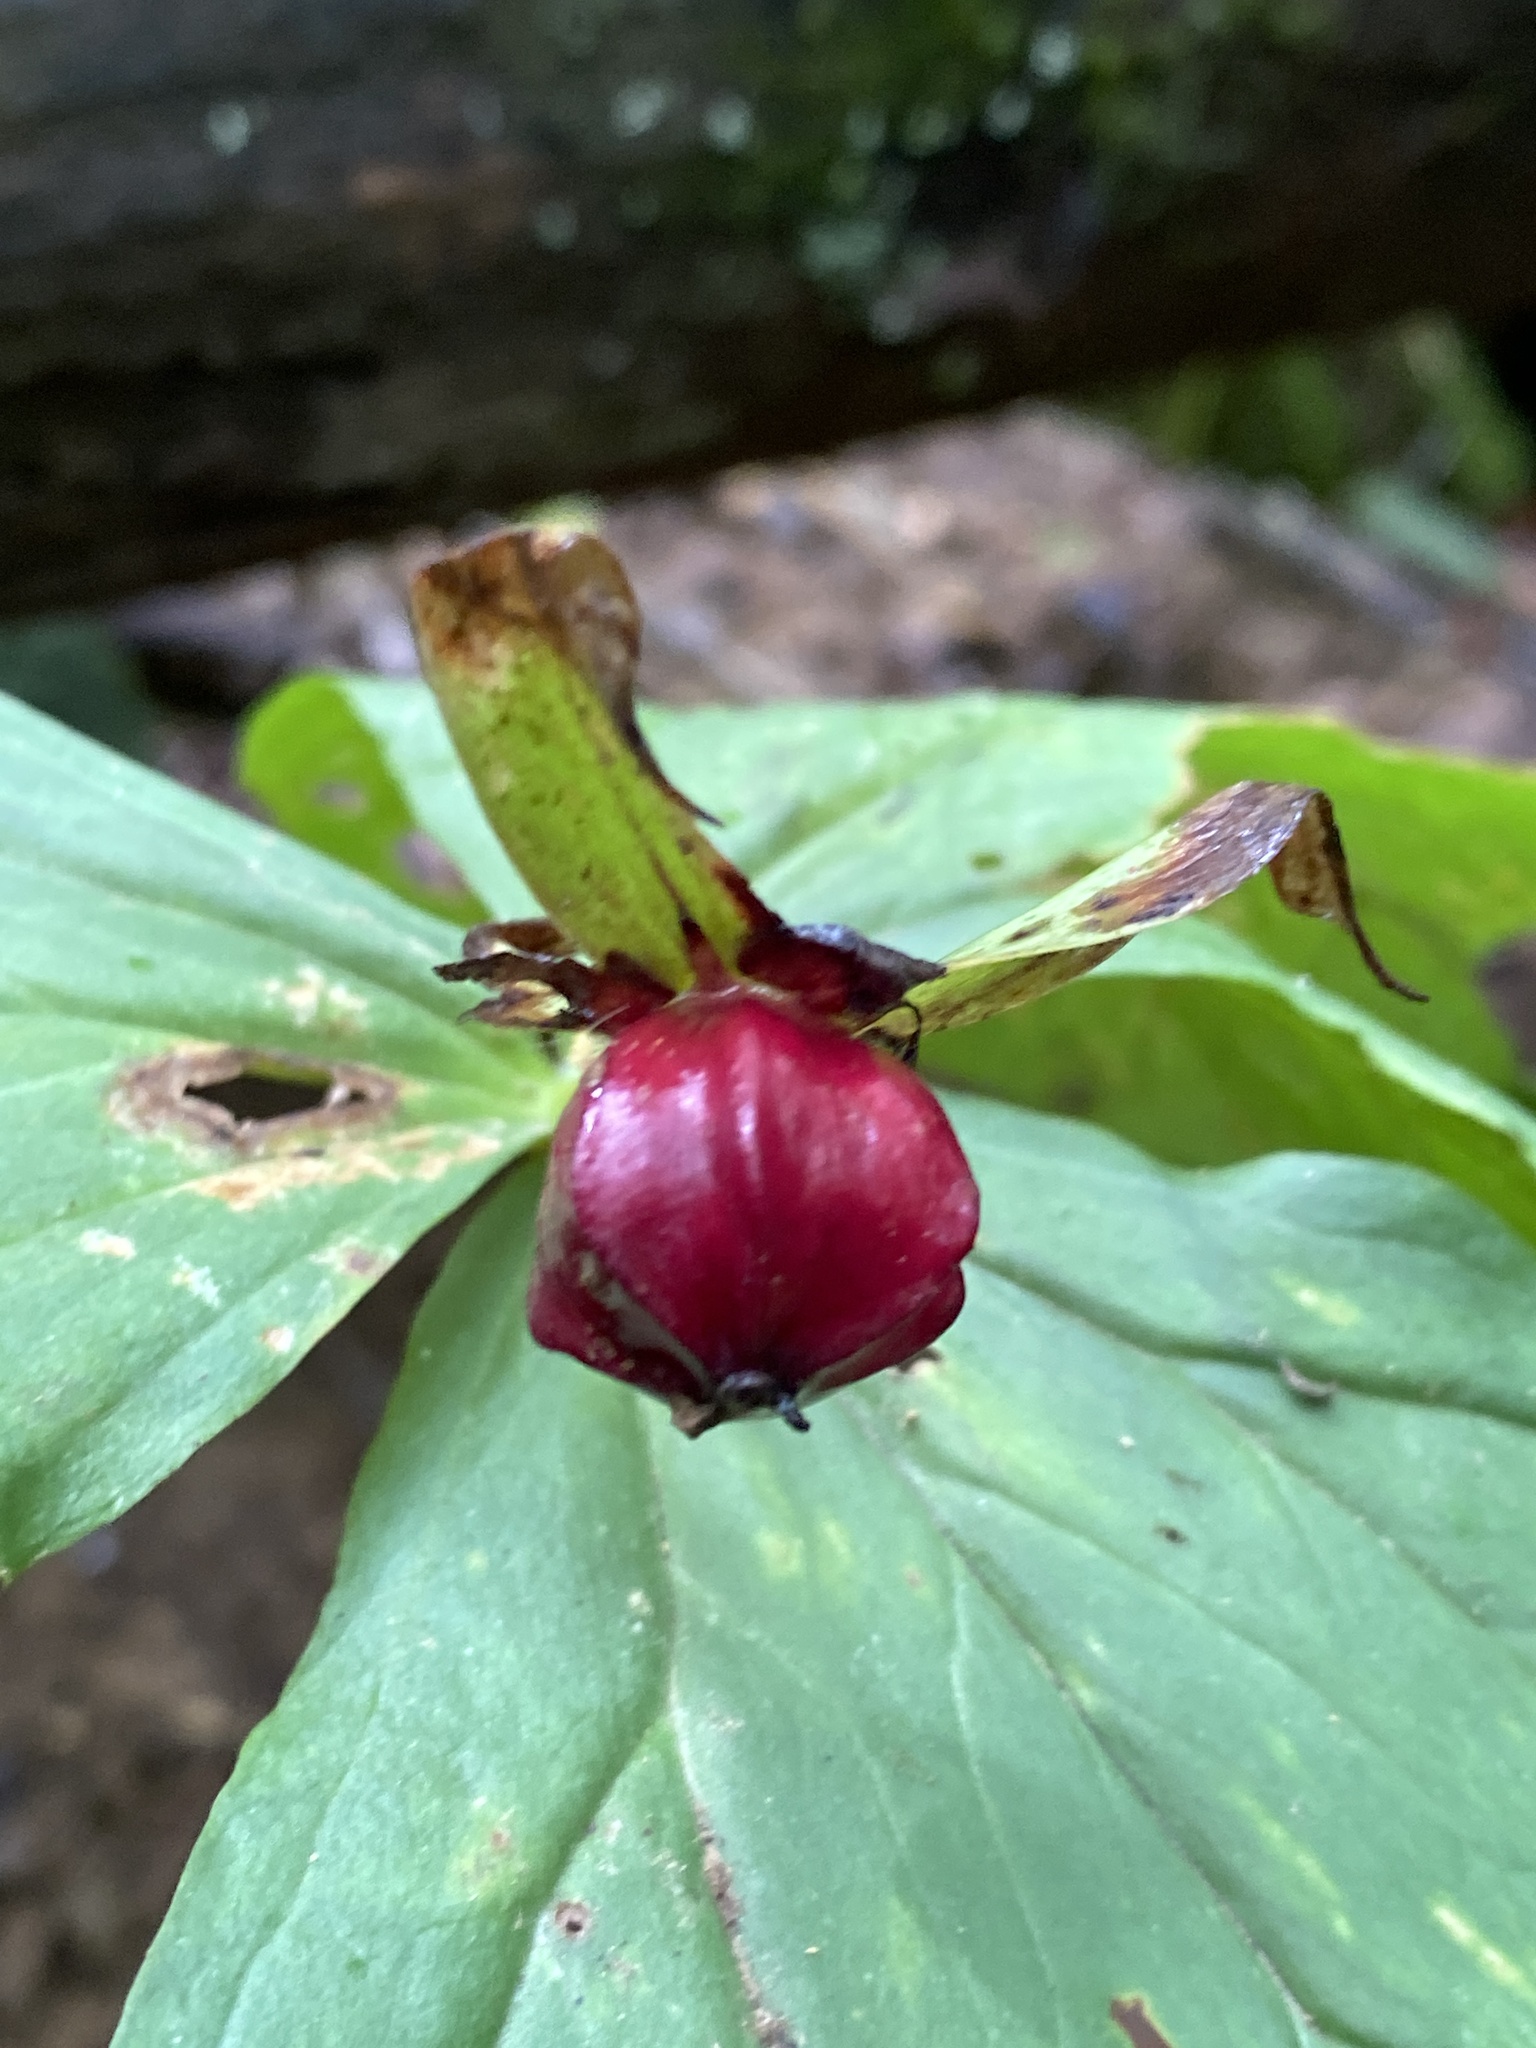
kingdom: Plantae
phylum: Tracheophyta
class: Liliopsida
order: Liliales
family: Melanthiaceae
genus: Trillium
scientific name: Trillium erectum
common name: Purple trillium
